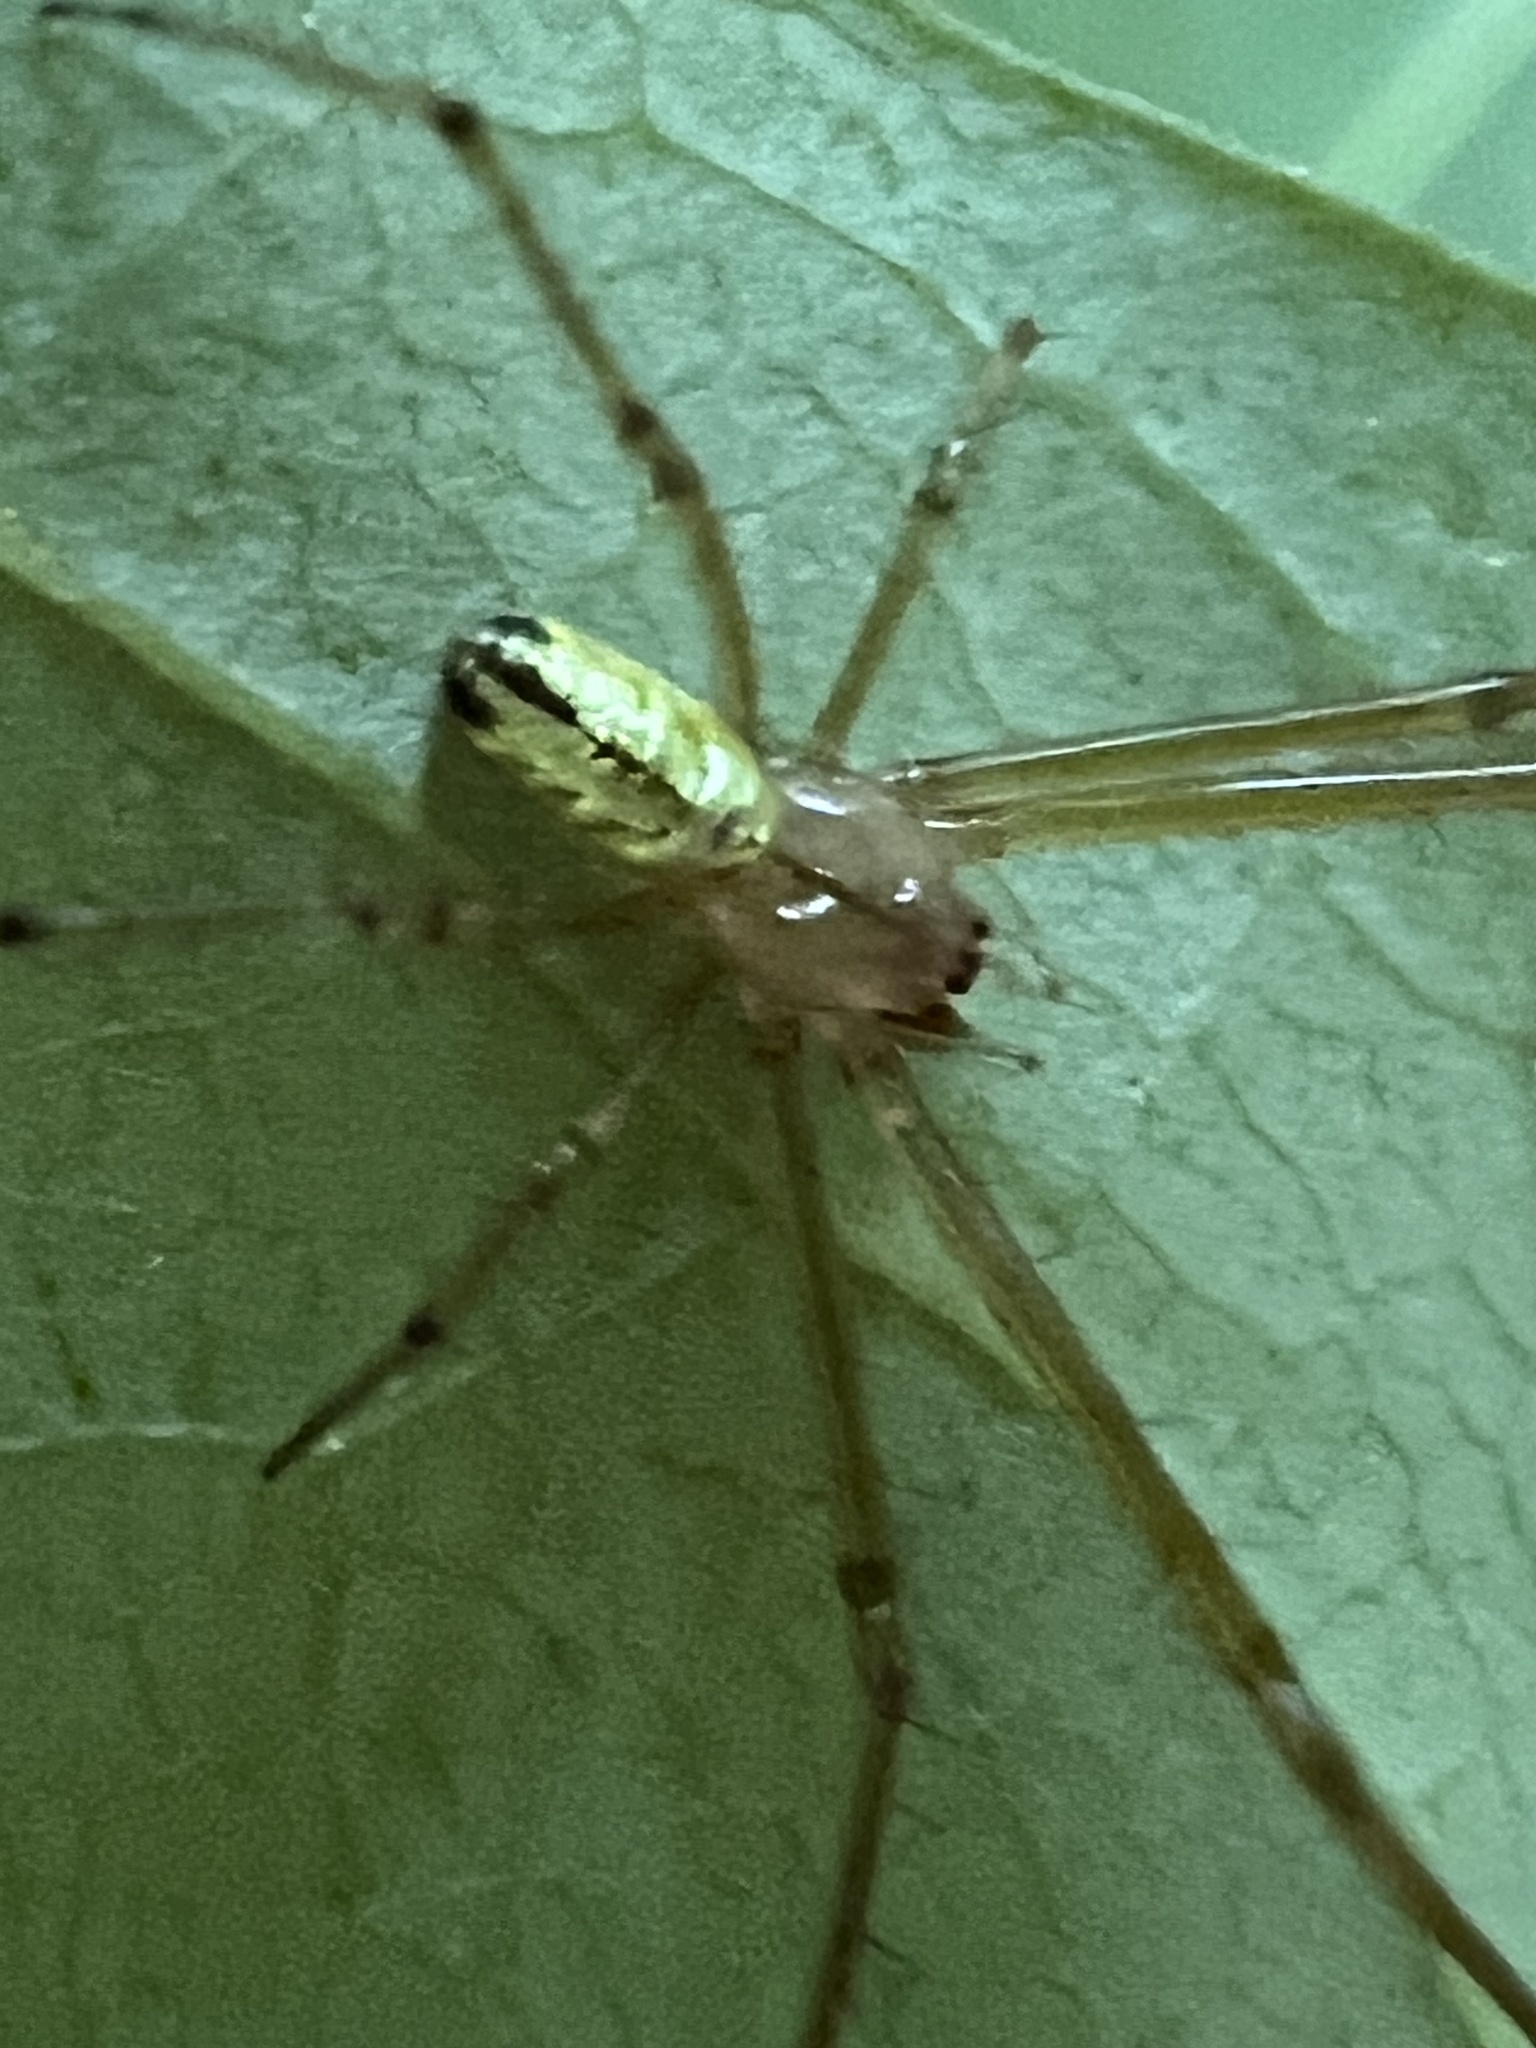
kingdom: Animalia
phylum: Arthropoda
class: Arachnida
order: Araneae
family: Tetragnathidae
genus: Leucauge
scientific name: Leucauge venusta
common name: Longjawed orb weavers
